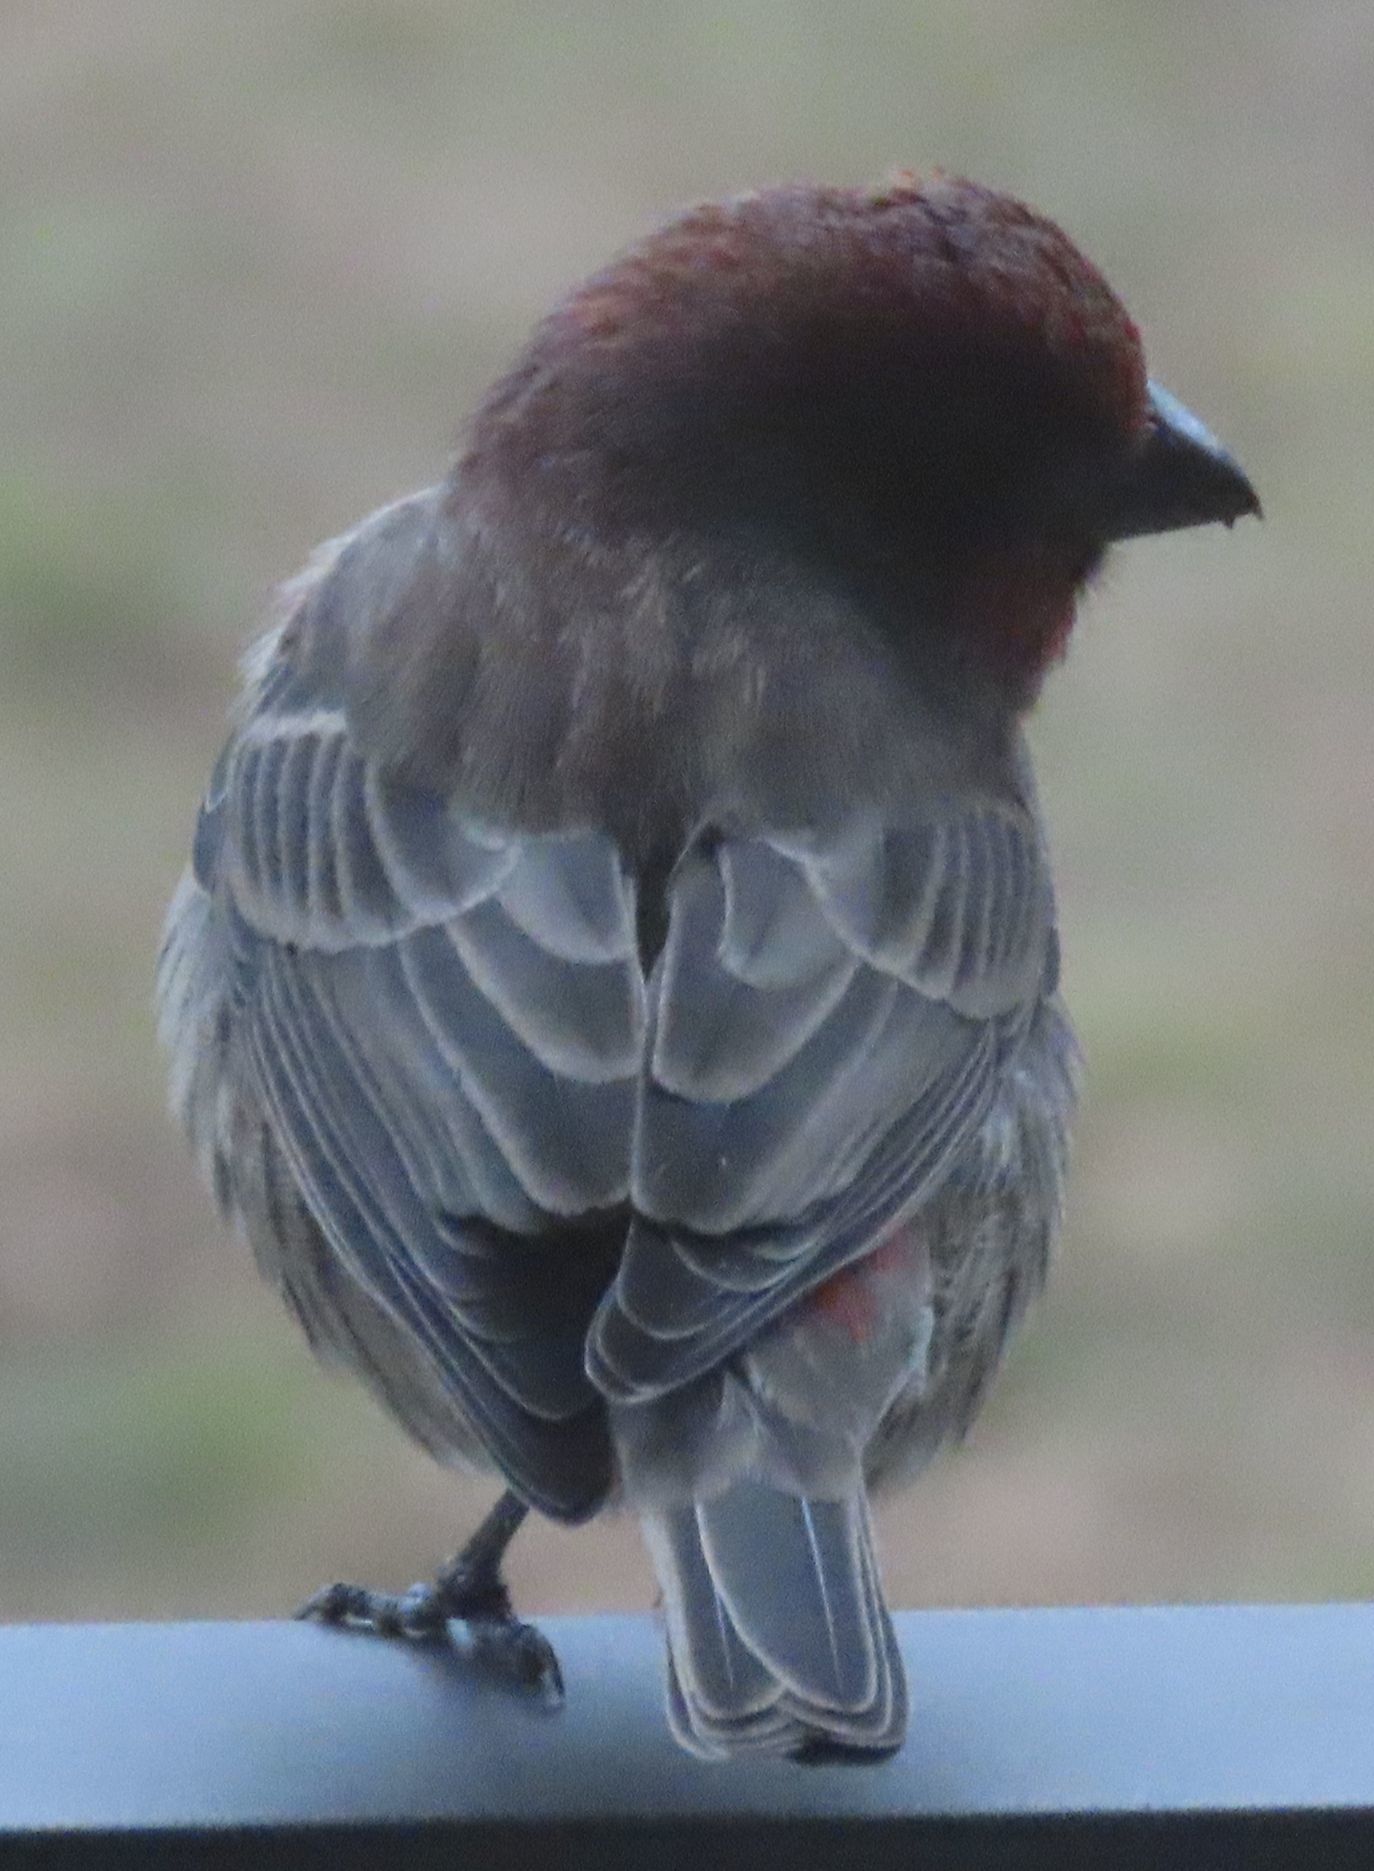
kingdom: Animalia
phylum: Chordata
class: Aves
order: Passeriformes
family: Fringillidae
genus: Haemorhous
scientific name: Haemorhous mexicanus
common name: House finch
